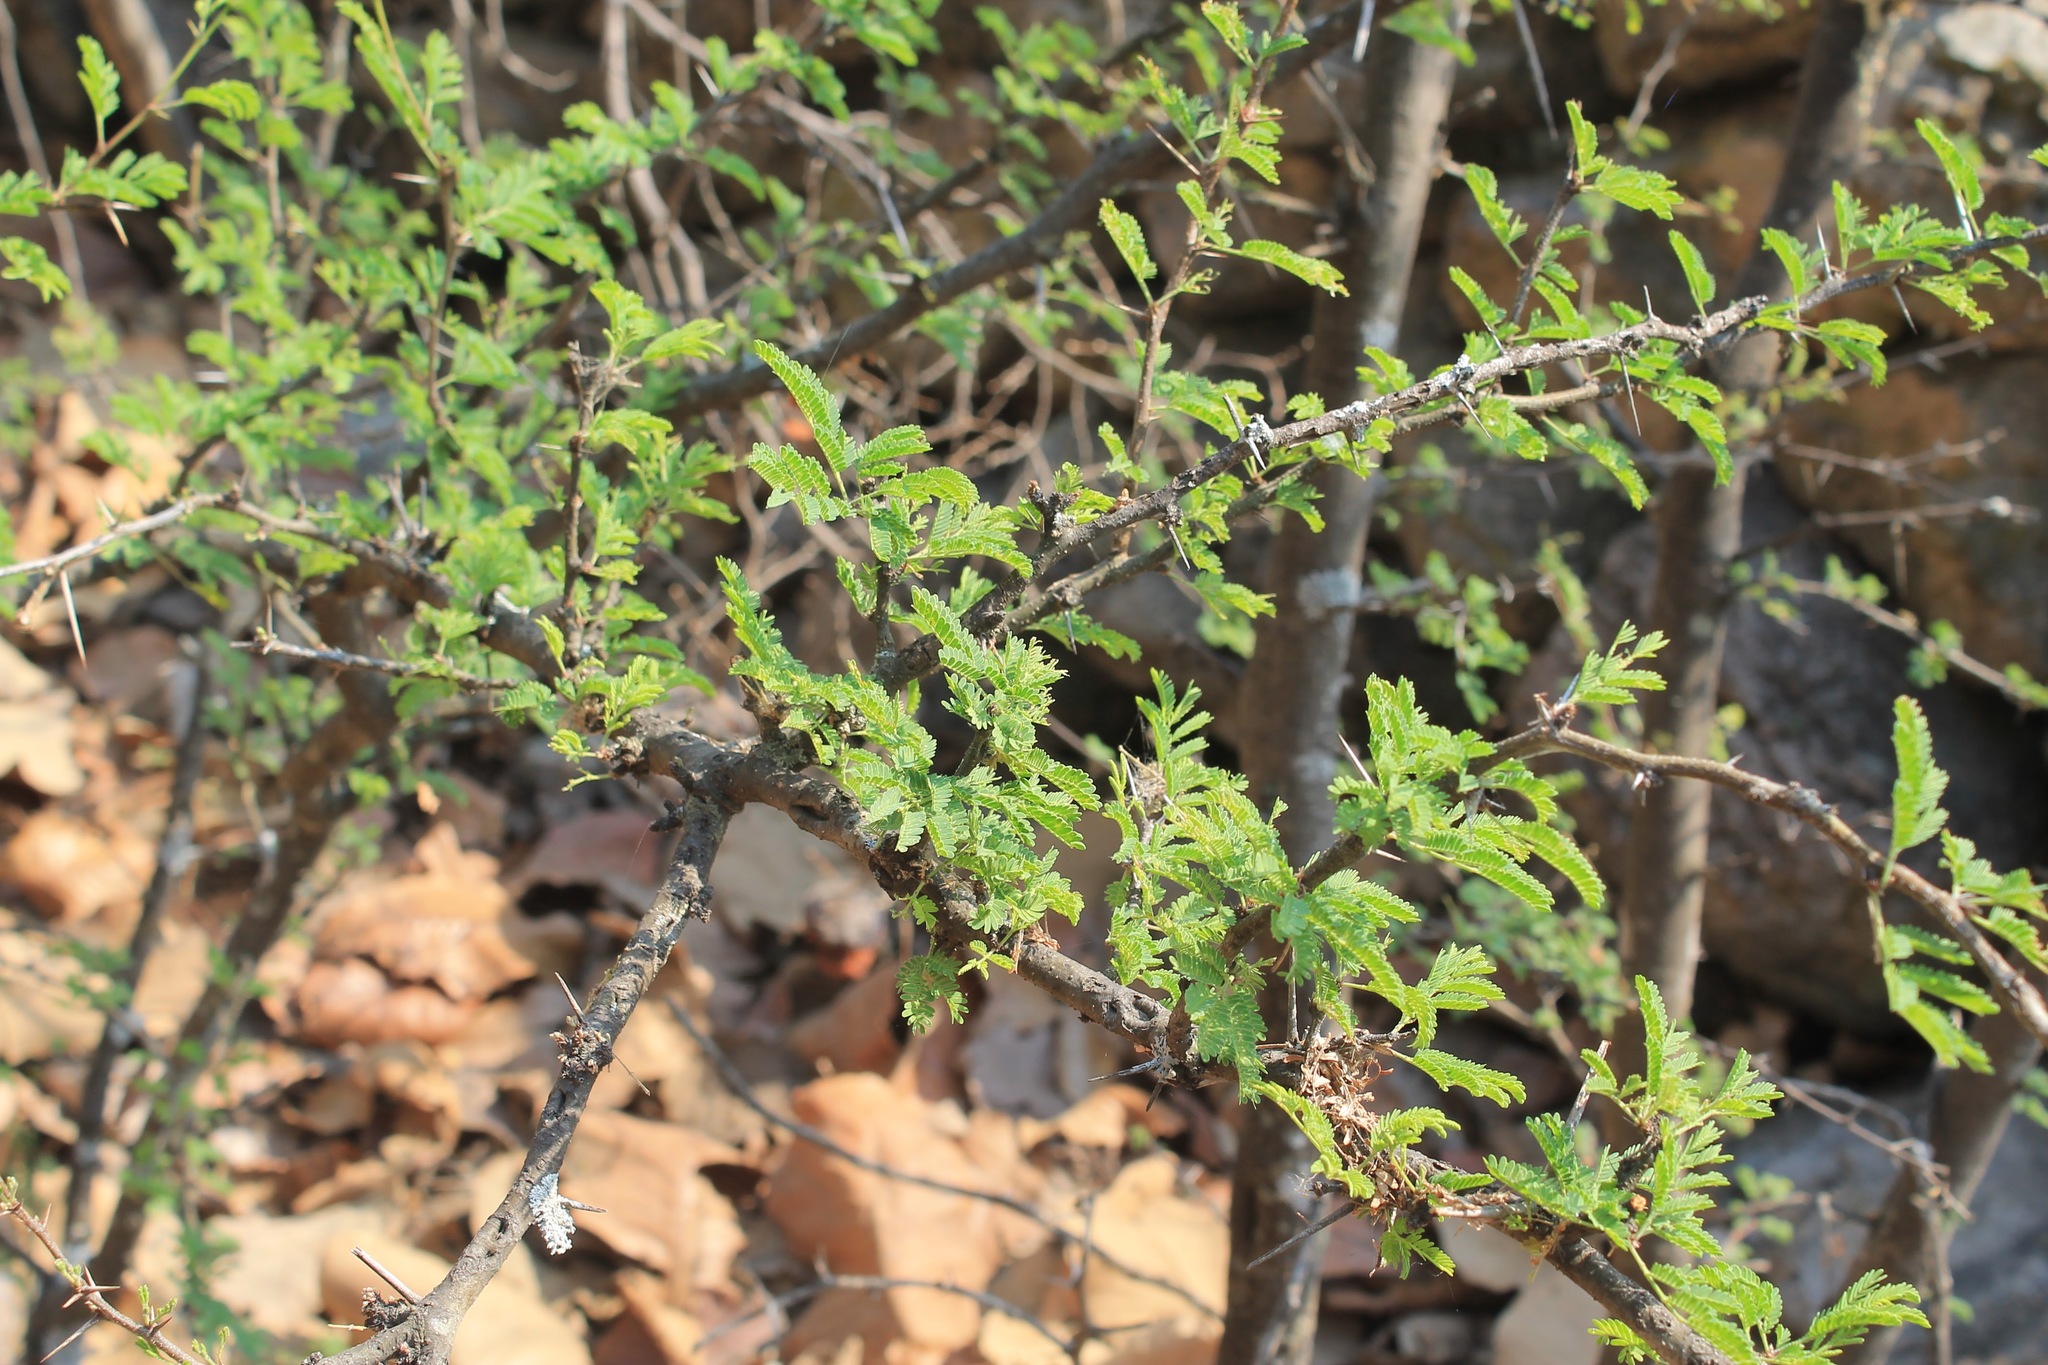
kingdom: Plantae
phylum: Tracheophyta
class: Magnoliopsida
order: Fabales
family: Fabaceae
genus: Vachellia
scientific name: Vachellia farnesiana
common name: Sweet acacia
